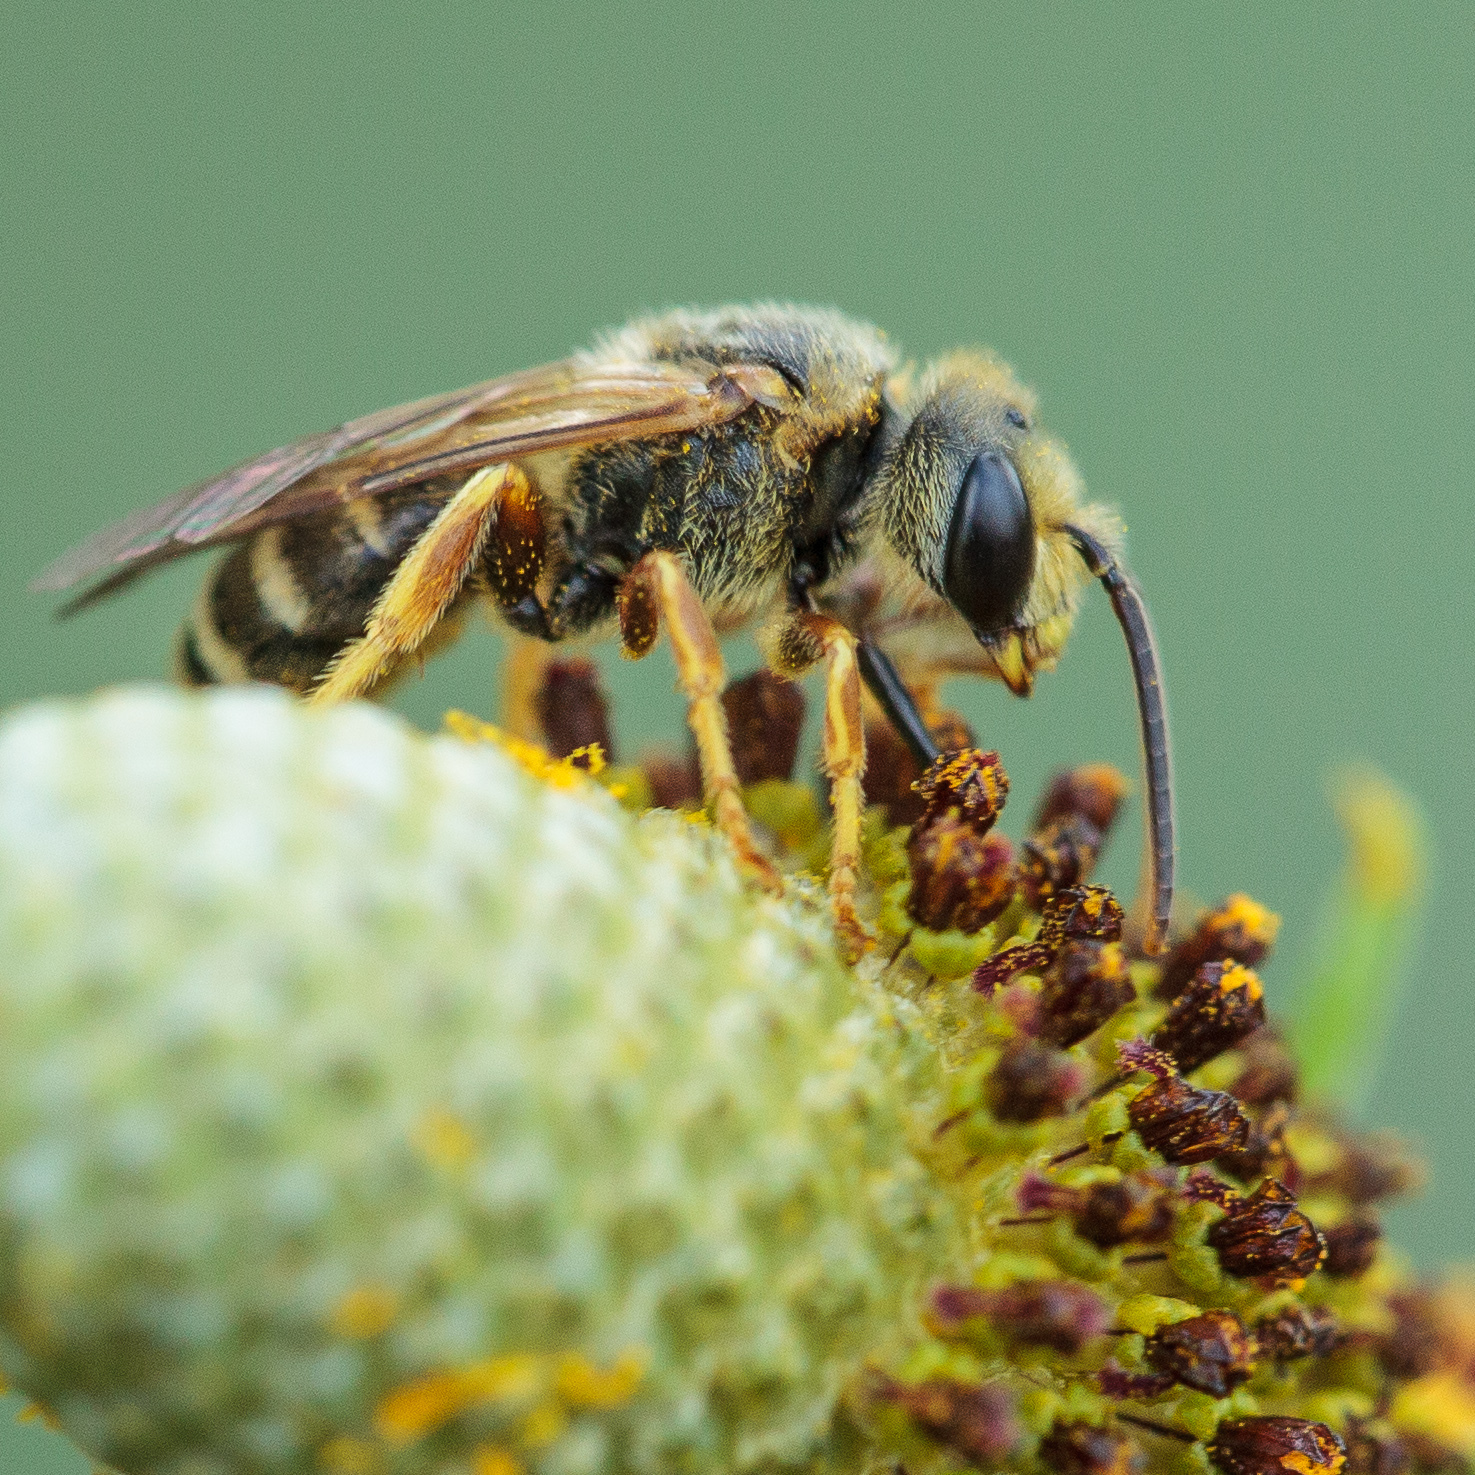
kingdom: Animalia
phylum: Arthropoda
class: Insecta
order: Hymenoptera
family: Halictidae
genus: Halictus
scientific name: Halictus ligatus
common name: Ligated furrow bee
